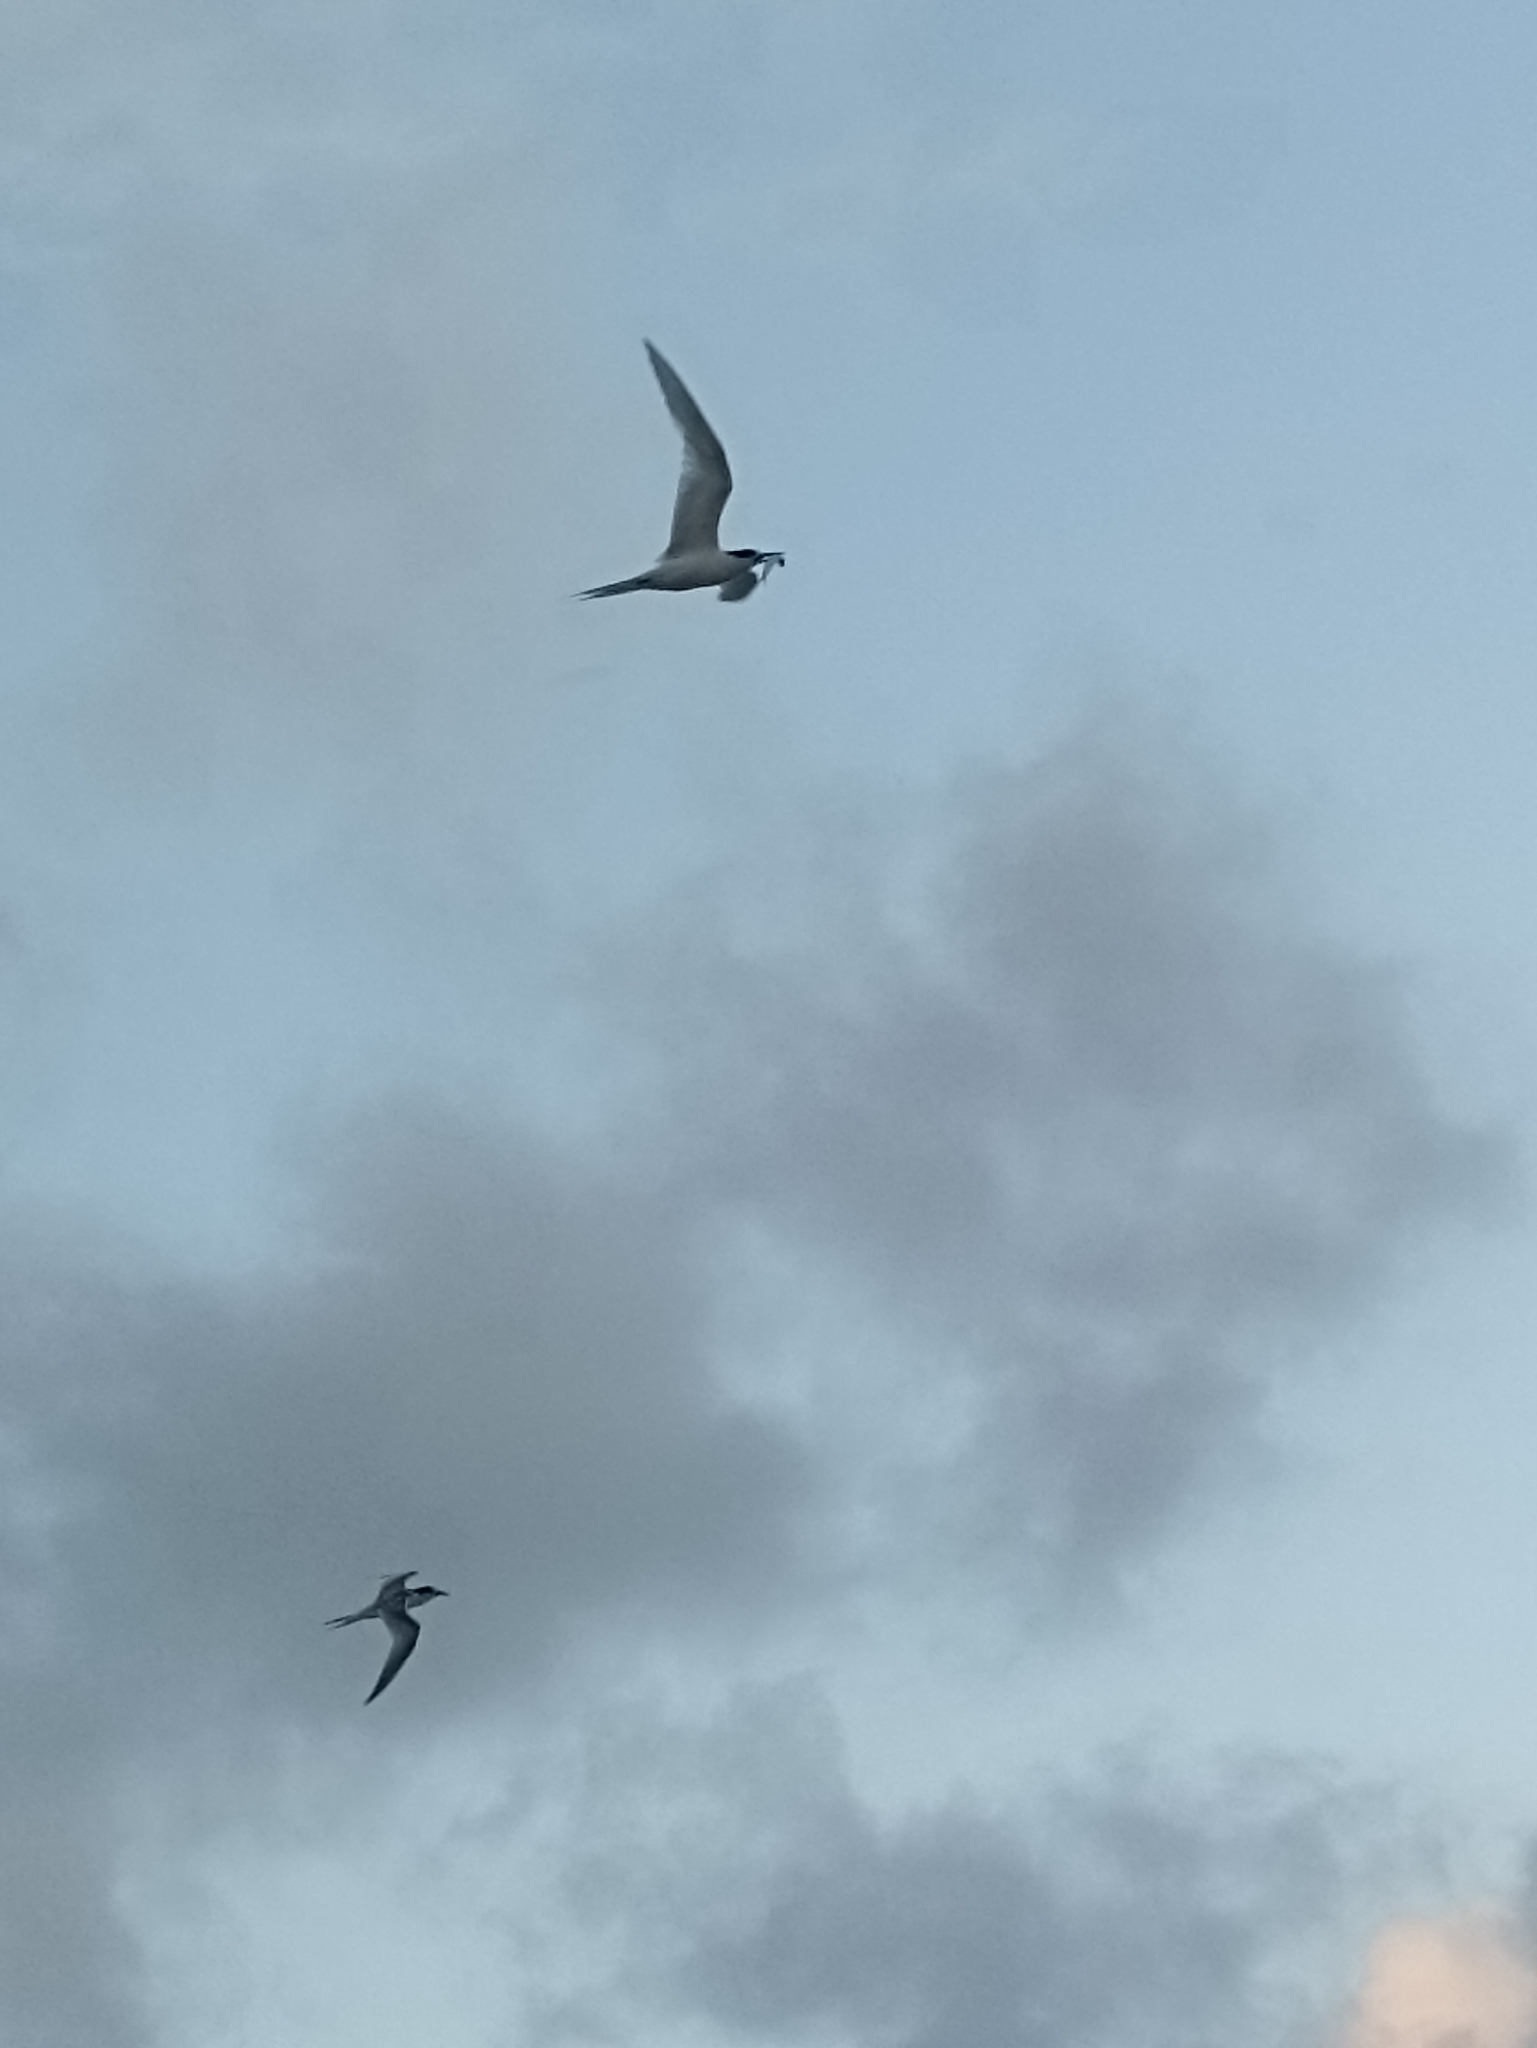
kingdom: Animalia
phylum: Chordata
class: Aves
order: Charadriiformes
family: Laridae
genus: Sterna
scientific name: Sterna striata
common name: White-fronted tern
